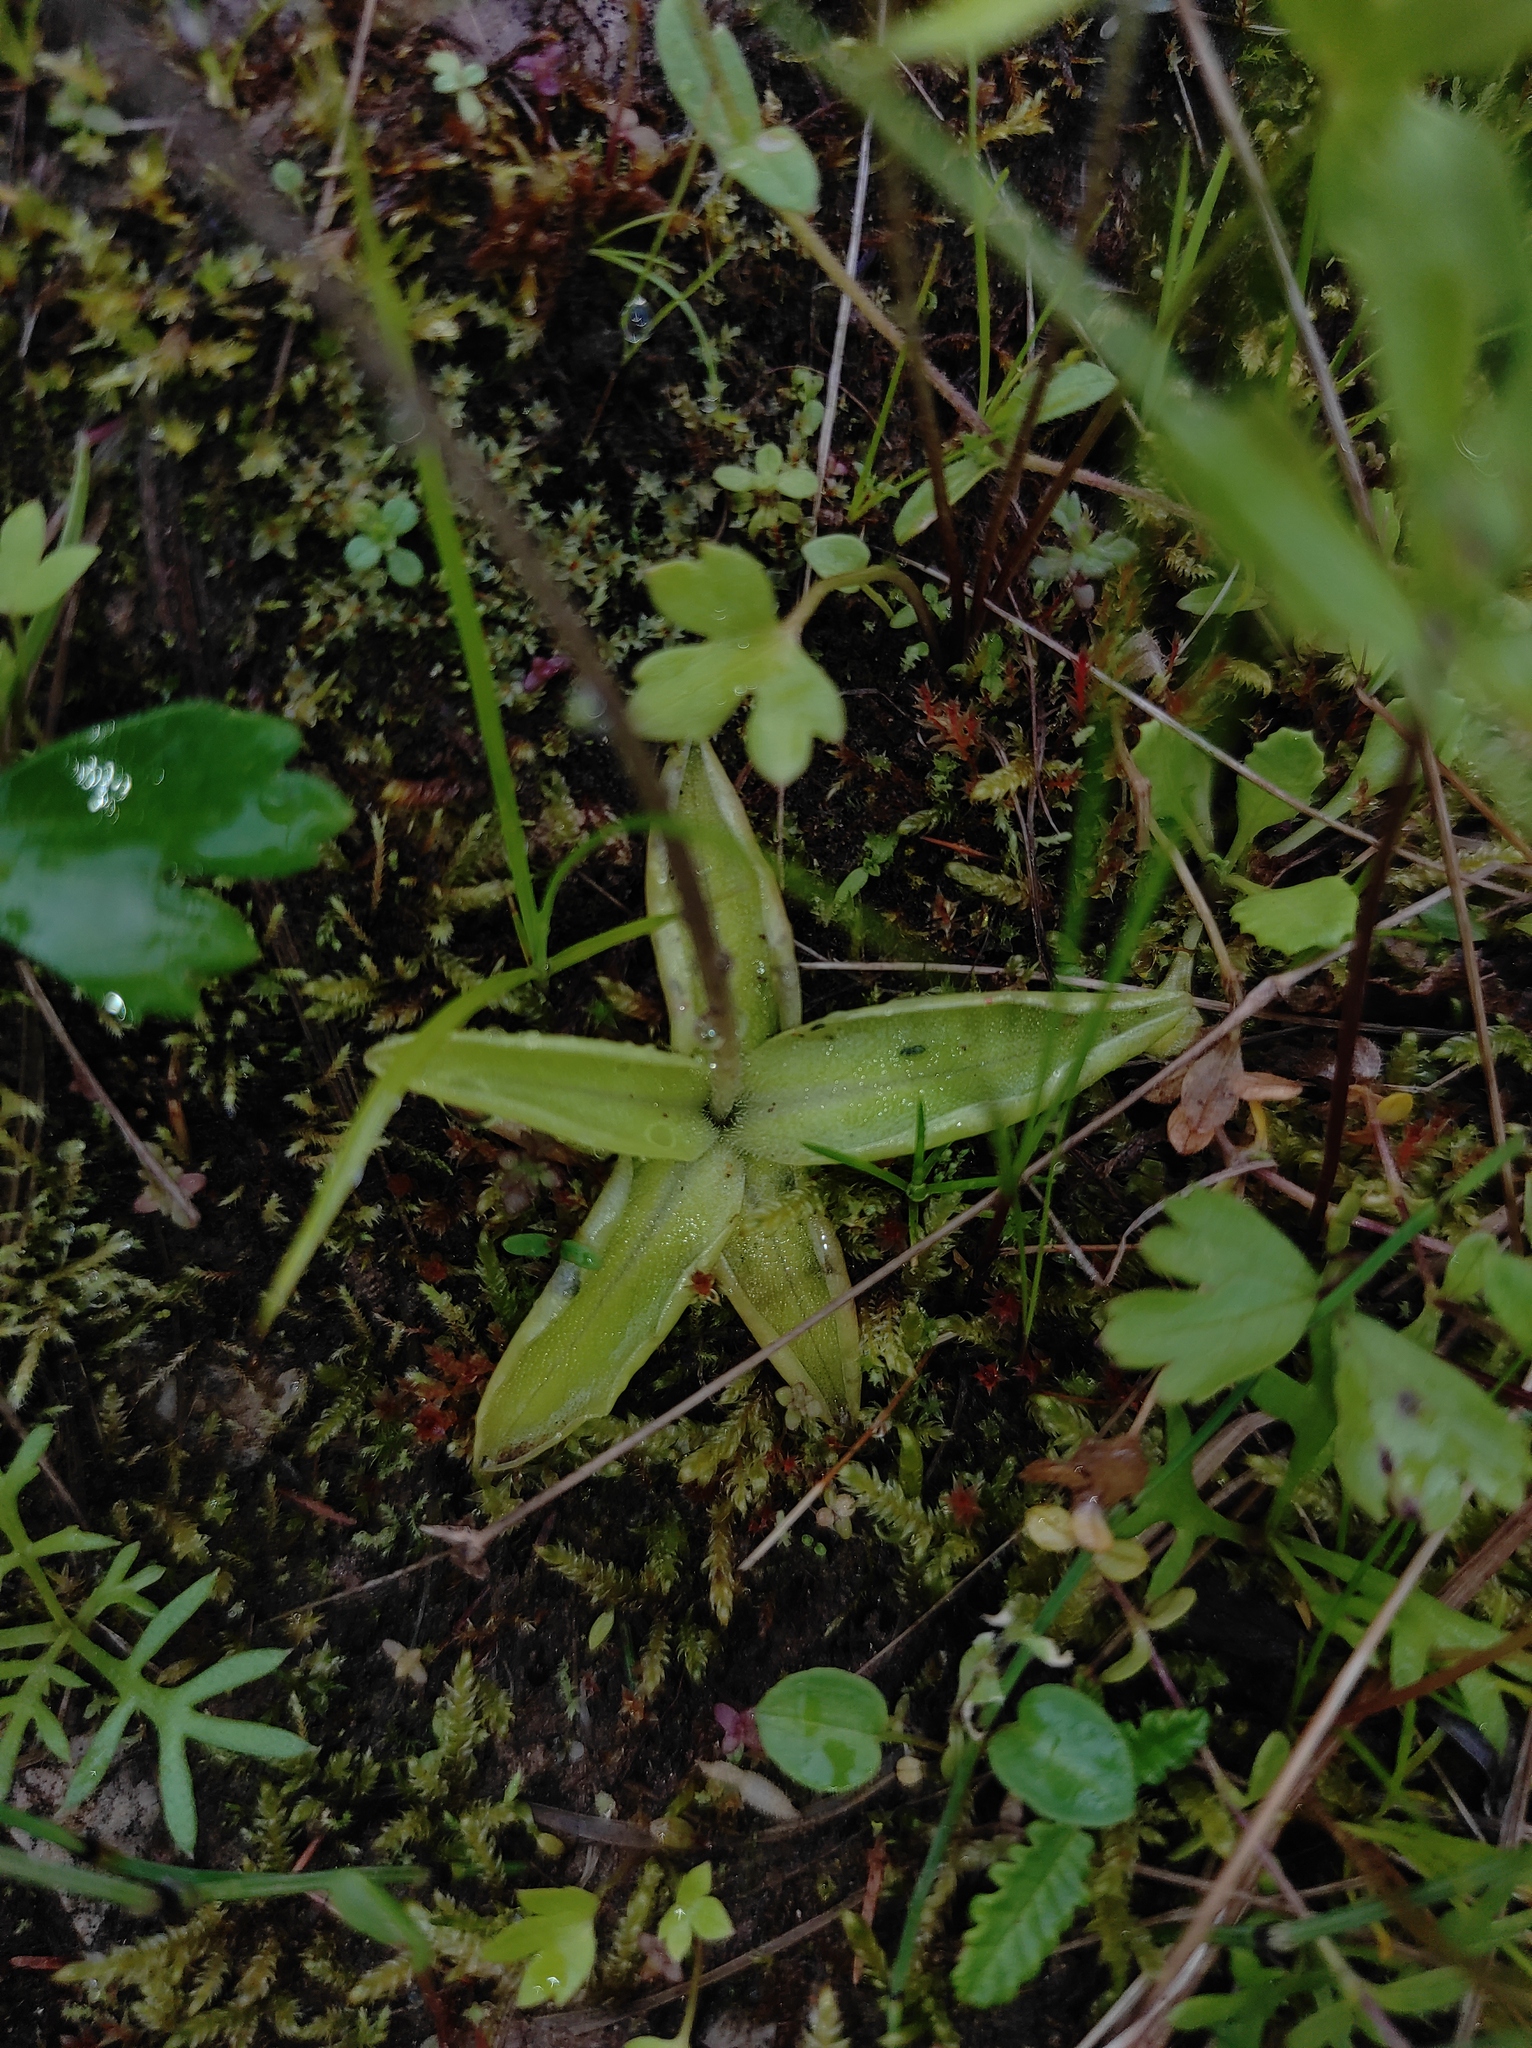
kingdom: Plantae
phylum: Tracheophyta
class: Magnoliopsida
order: Lamiales
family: Lentibulariaceae
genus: Pinguicula
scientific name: Pinguicula vulgaris
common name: Common butterwort
